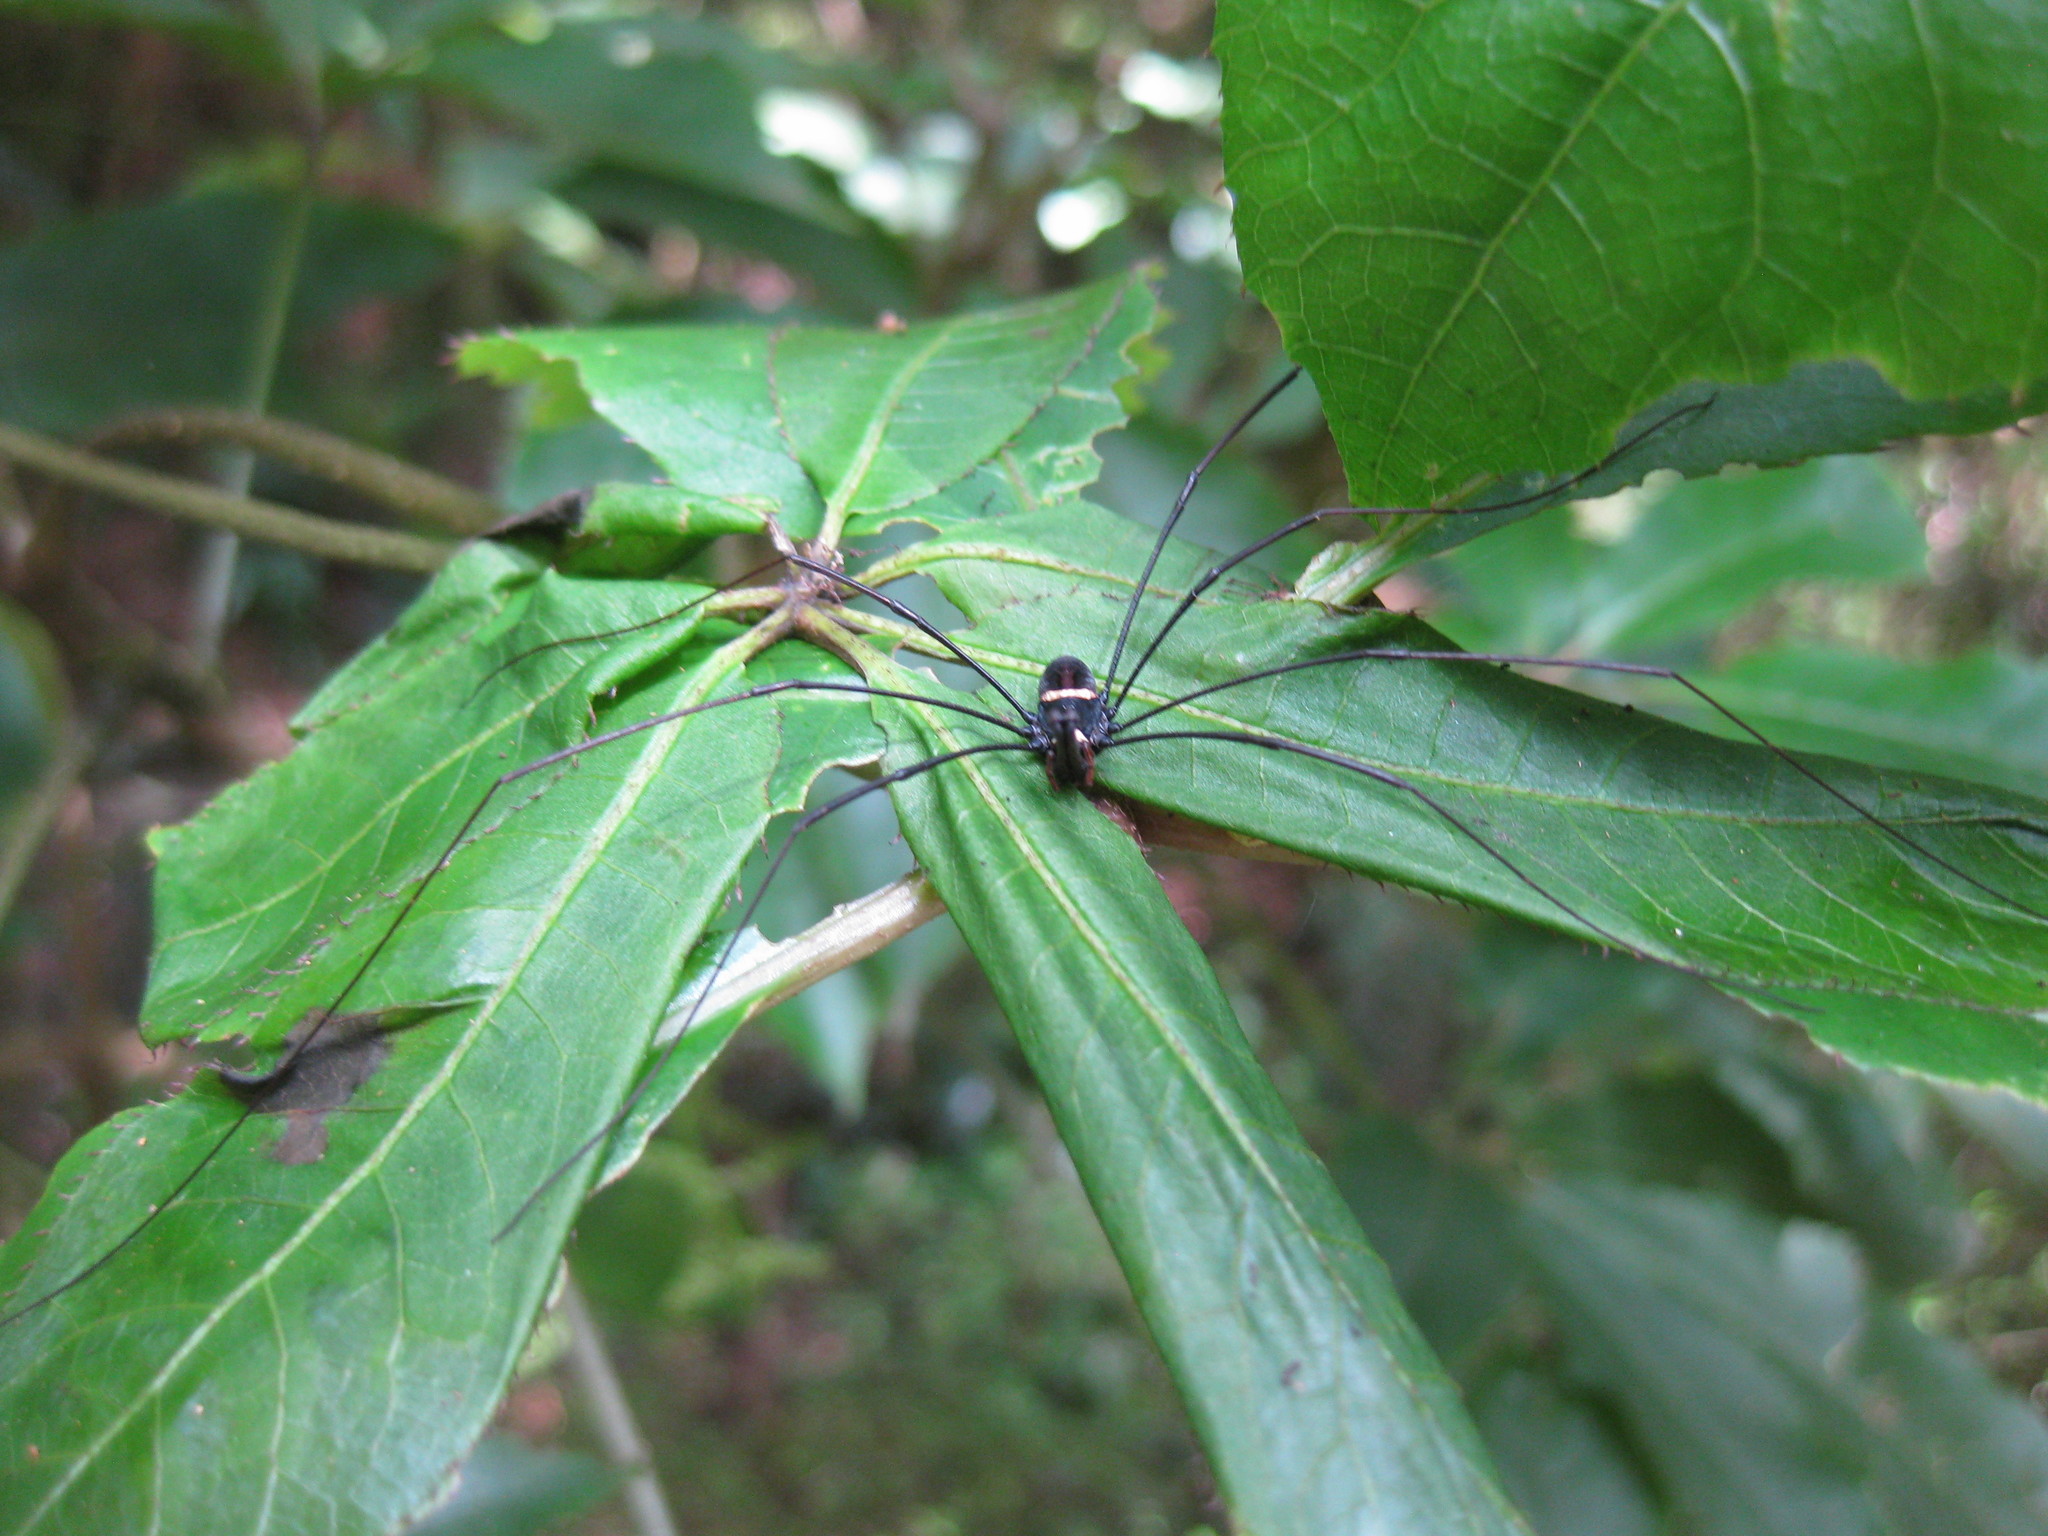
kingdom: Animalia
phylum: Arthropoda
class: Arachnida
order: Opiliones
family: Neopilionidae
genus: Pantopsalis
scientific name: Pantopsalis phocator
